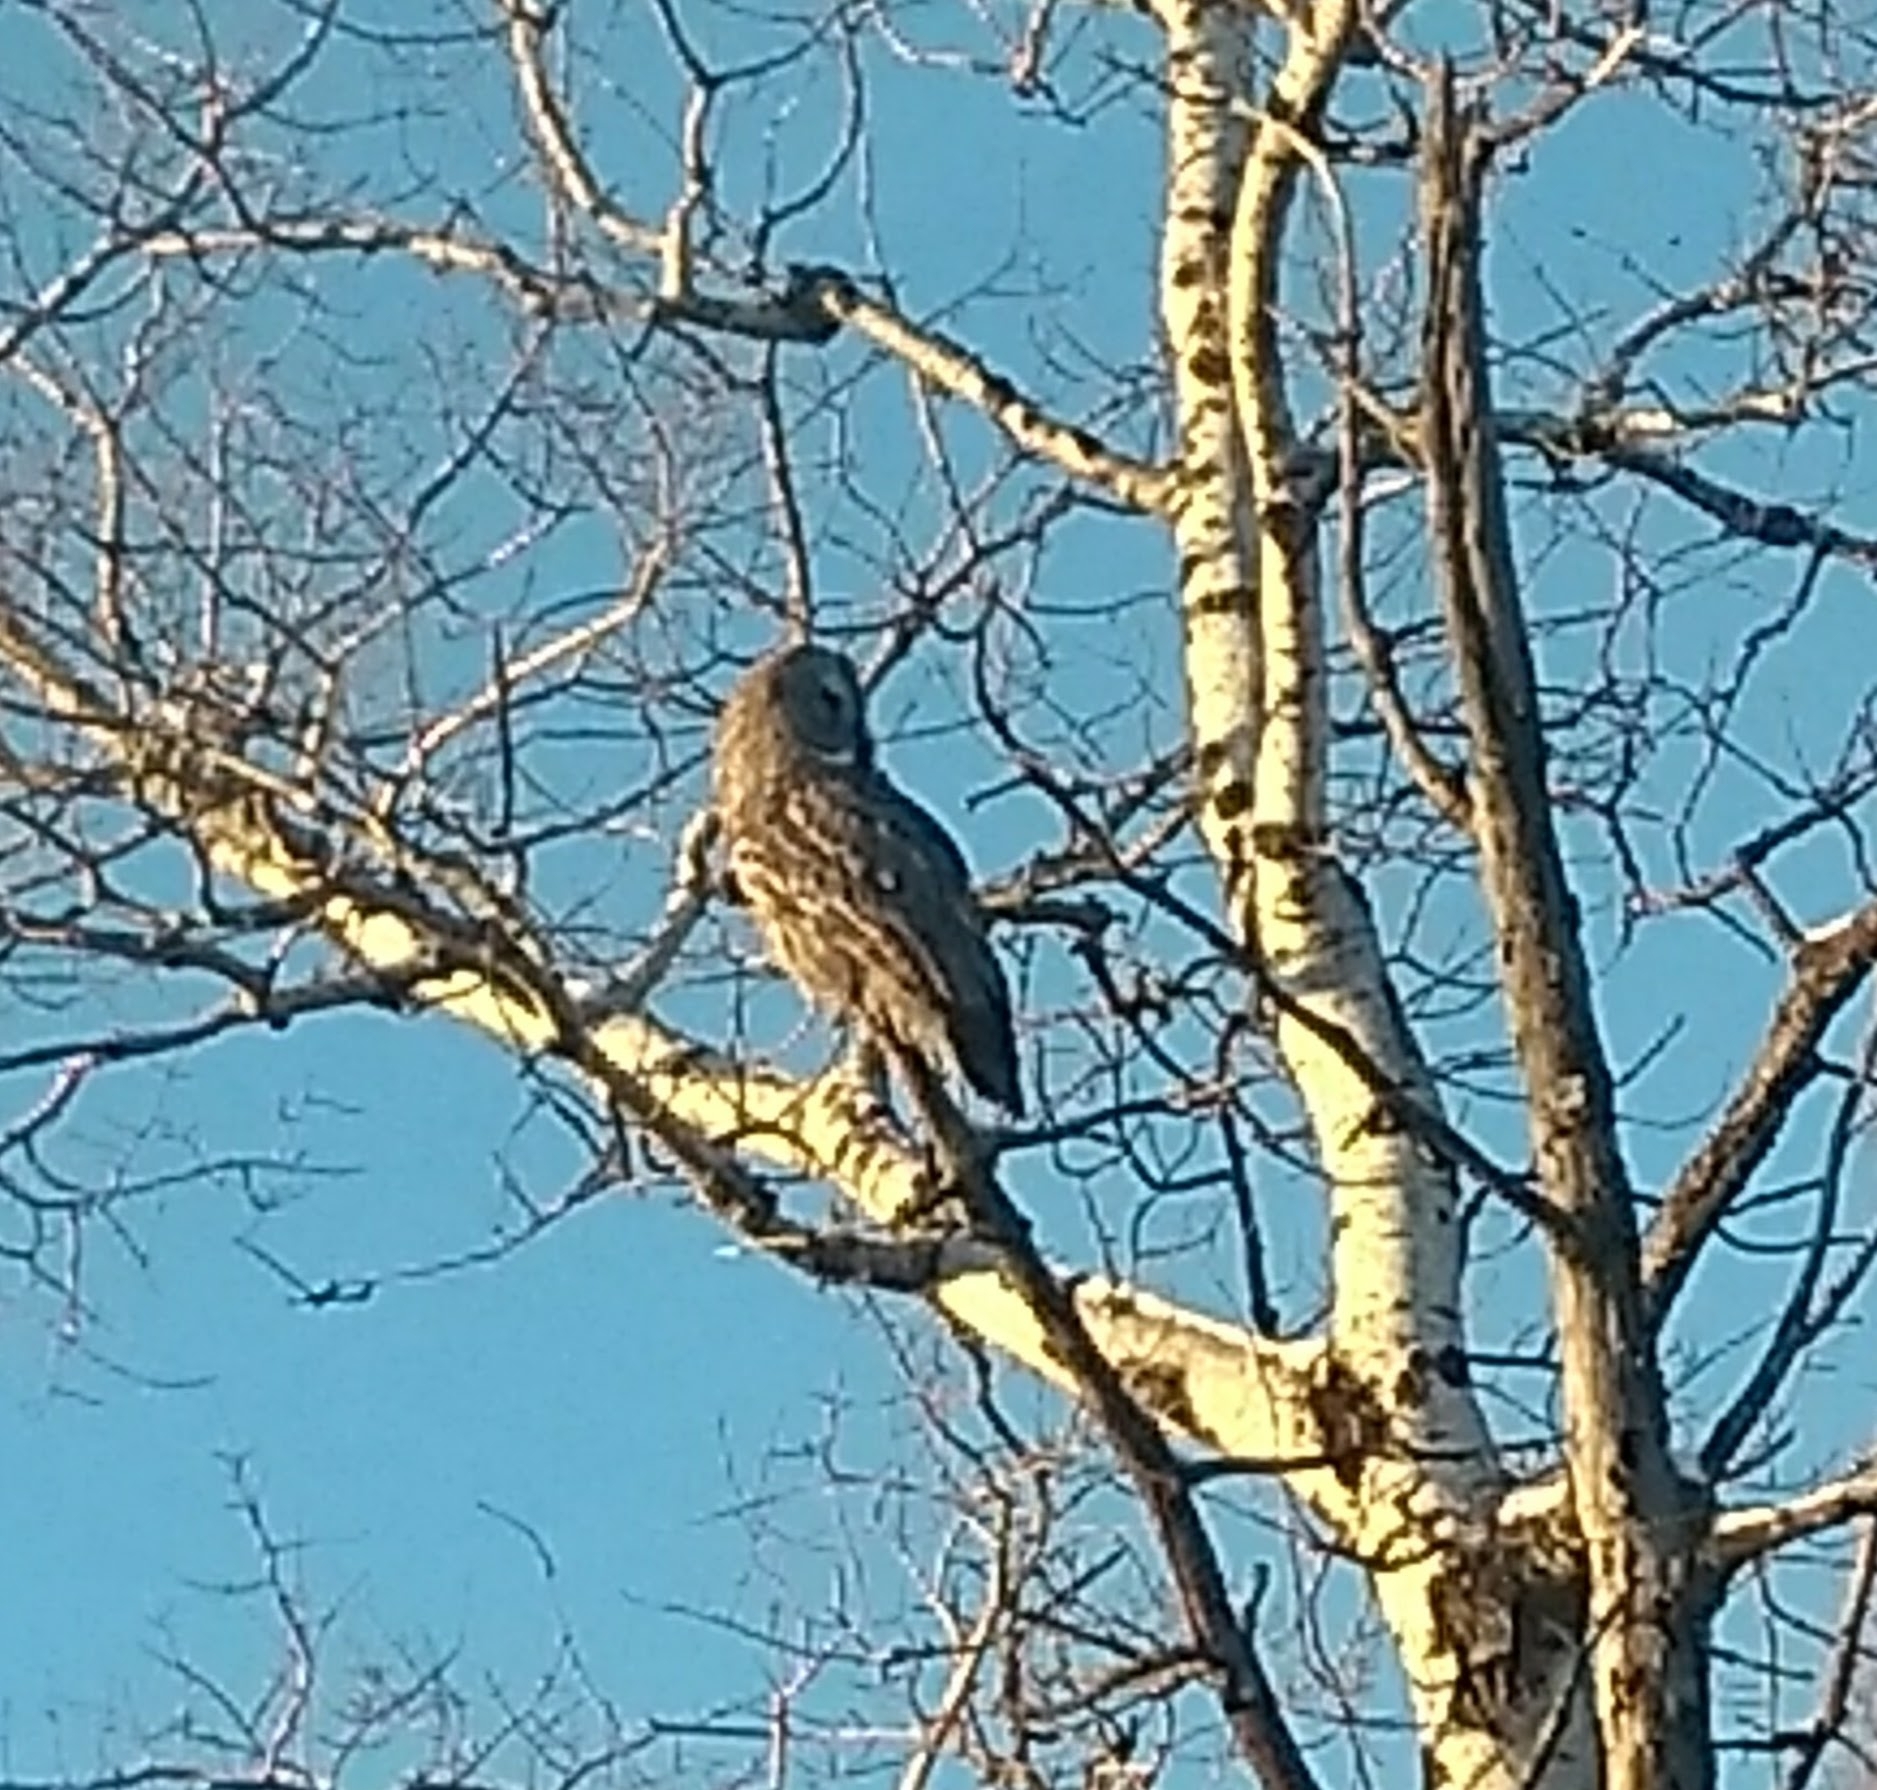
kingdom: Animalia
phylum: Chordata
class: Aves
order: Strigiformes
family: Strigidae
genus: Strix
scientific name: Strix nebulosa
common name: Great grey owl
